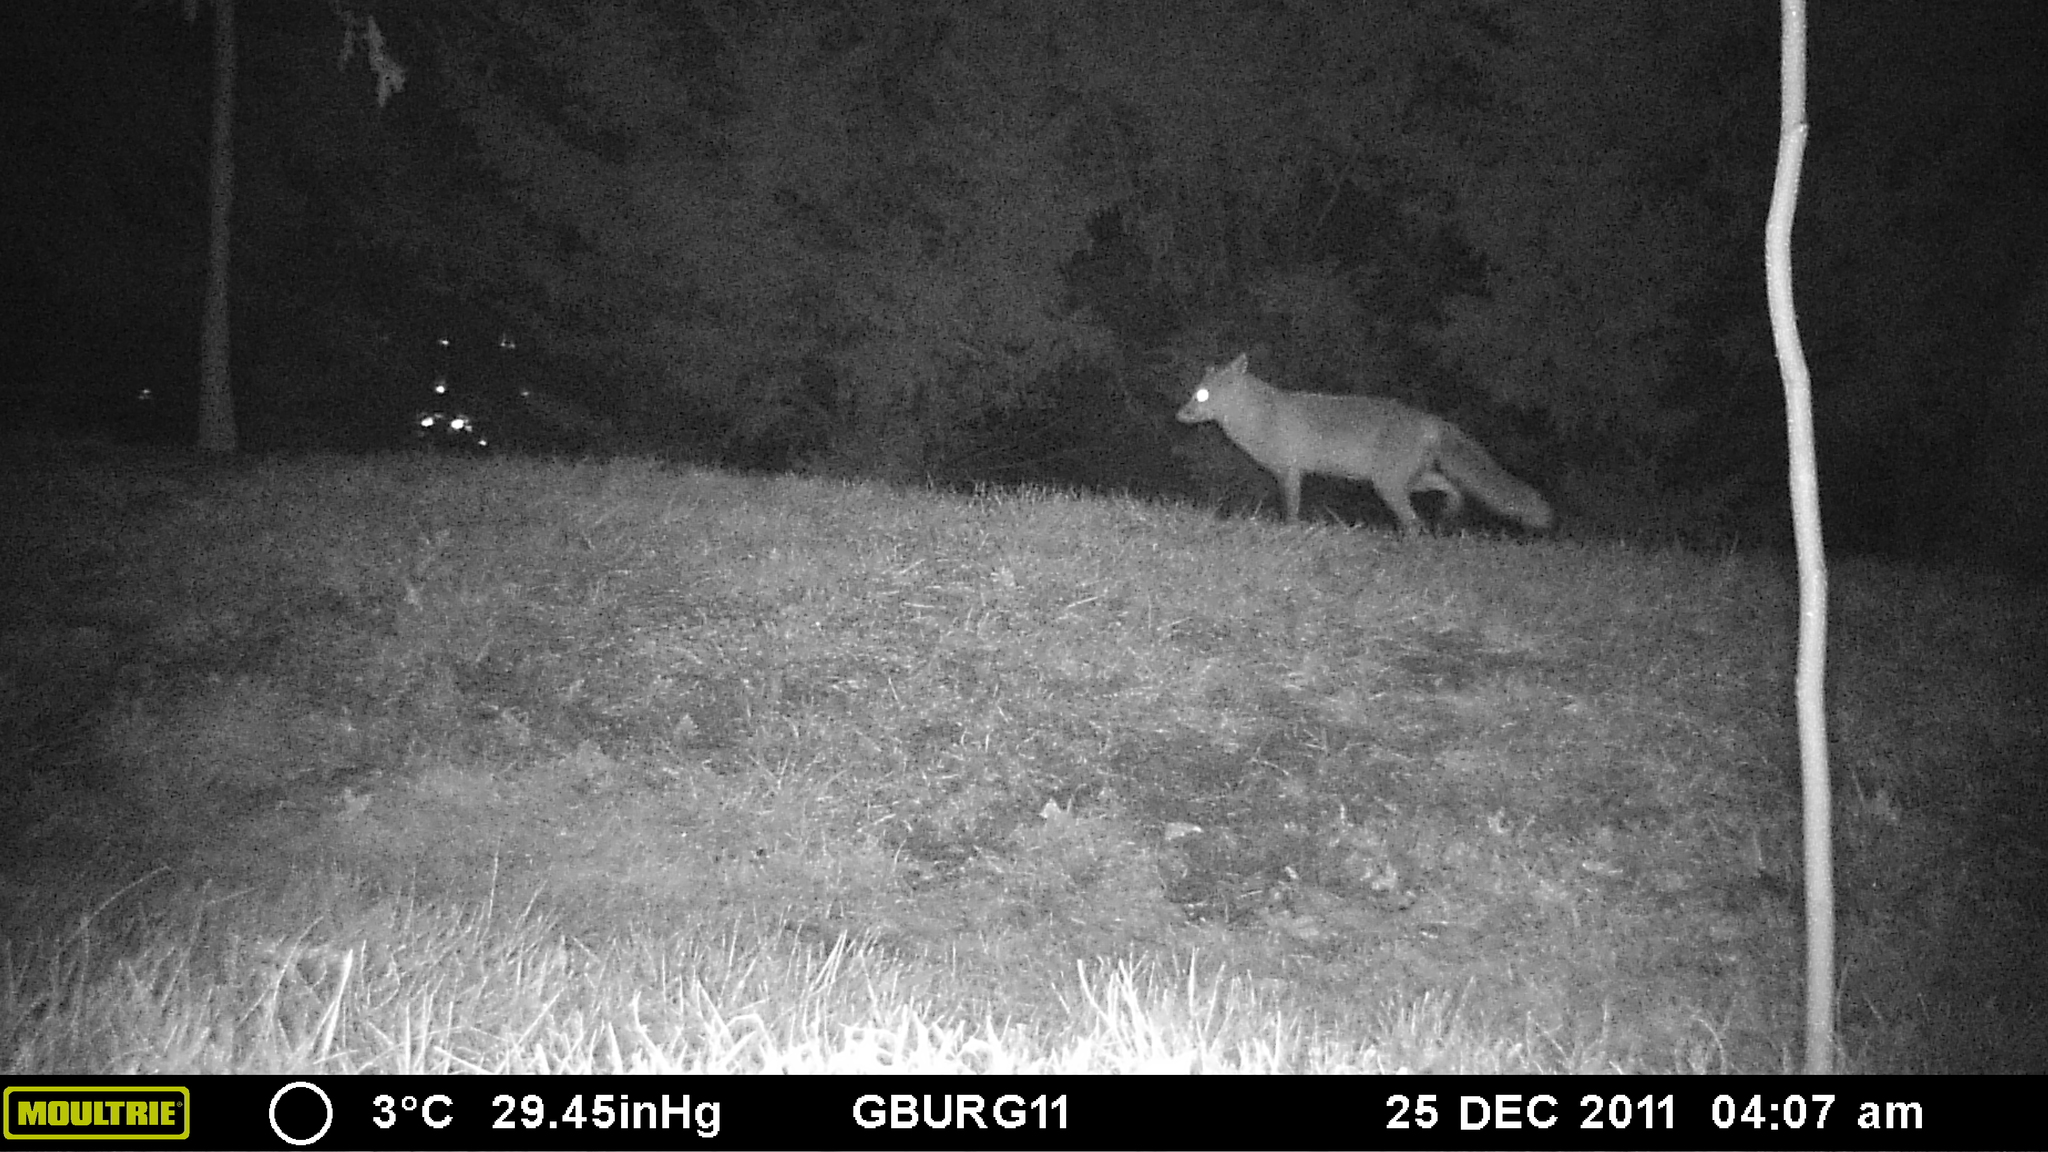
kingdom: Animalia
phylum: Chordata
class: Mammalia
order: Carnivora
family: Canidae
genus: Vulpes
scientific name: Vulpes vulpes
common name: Red fox
